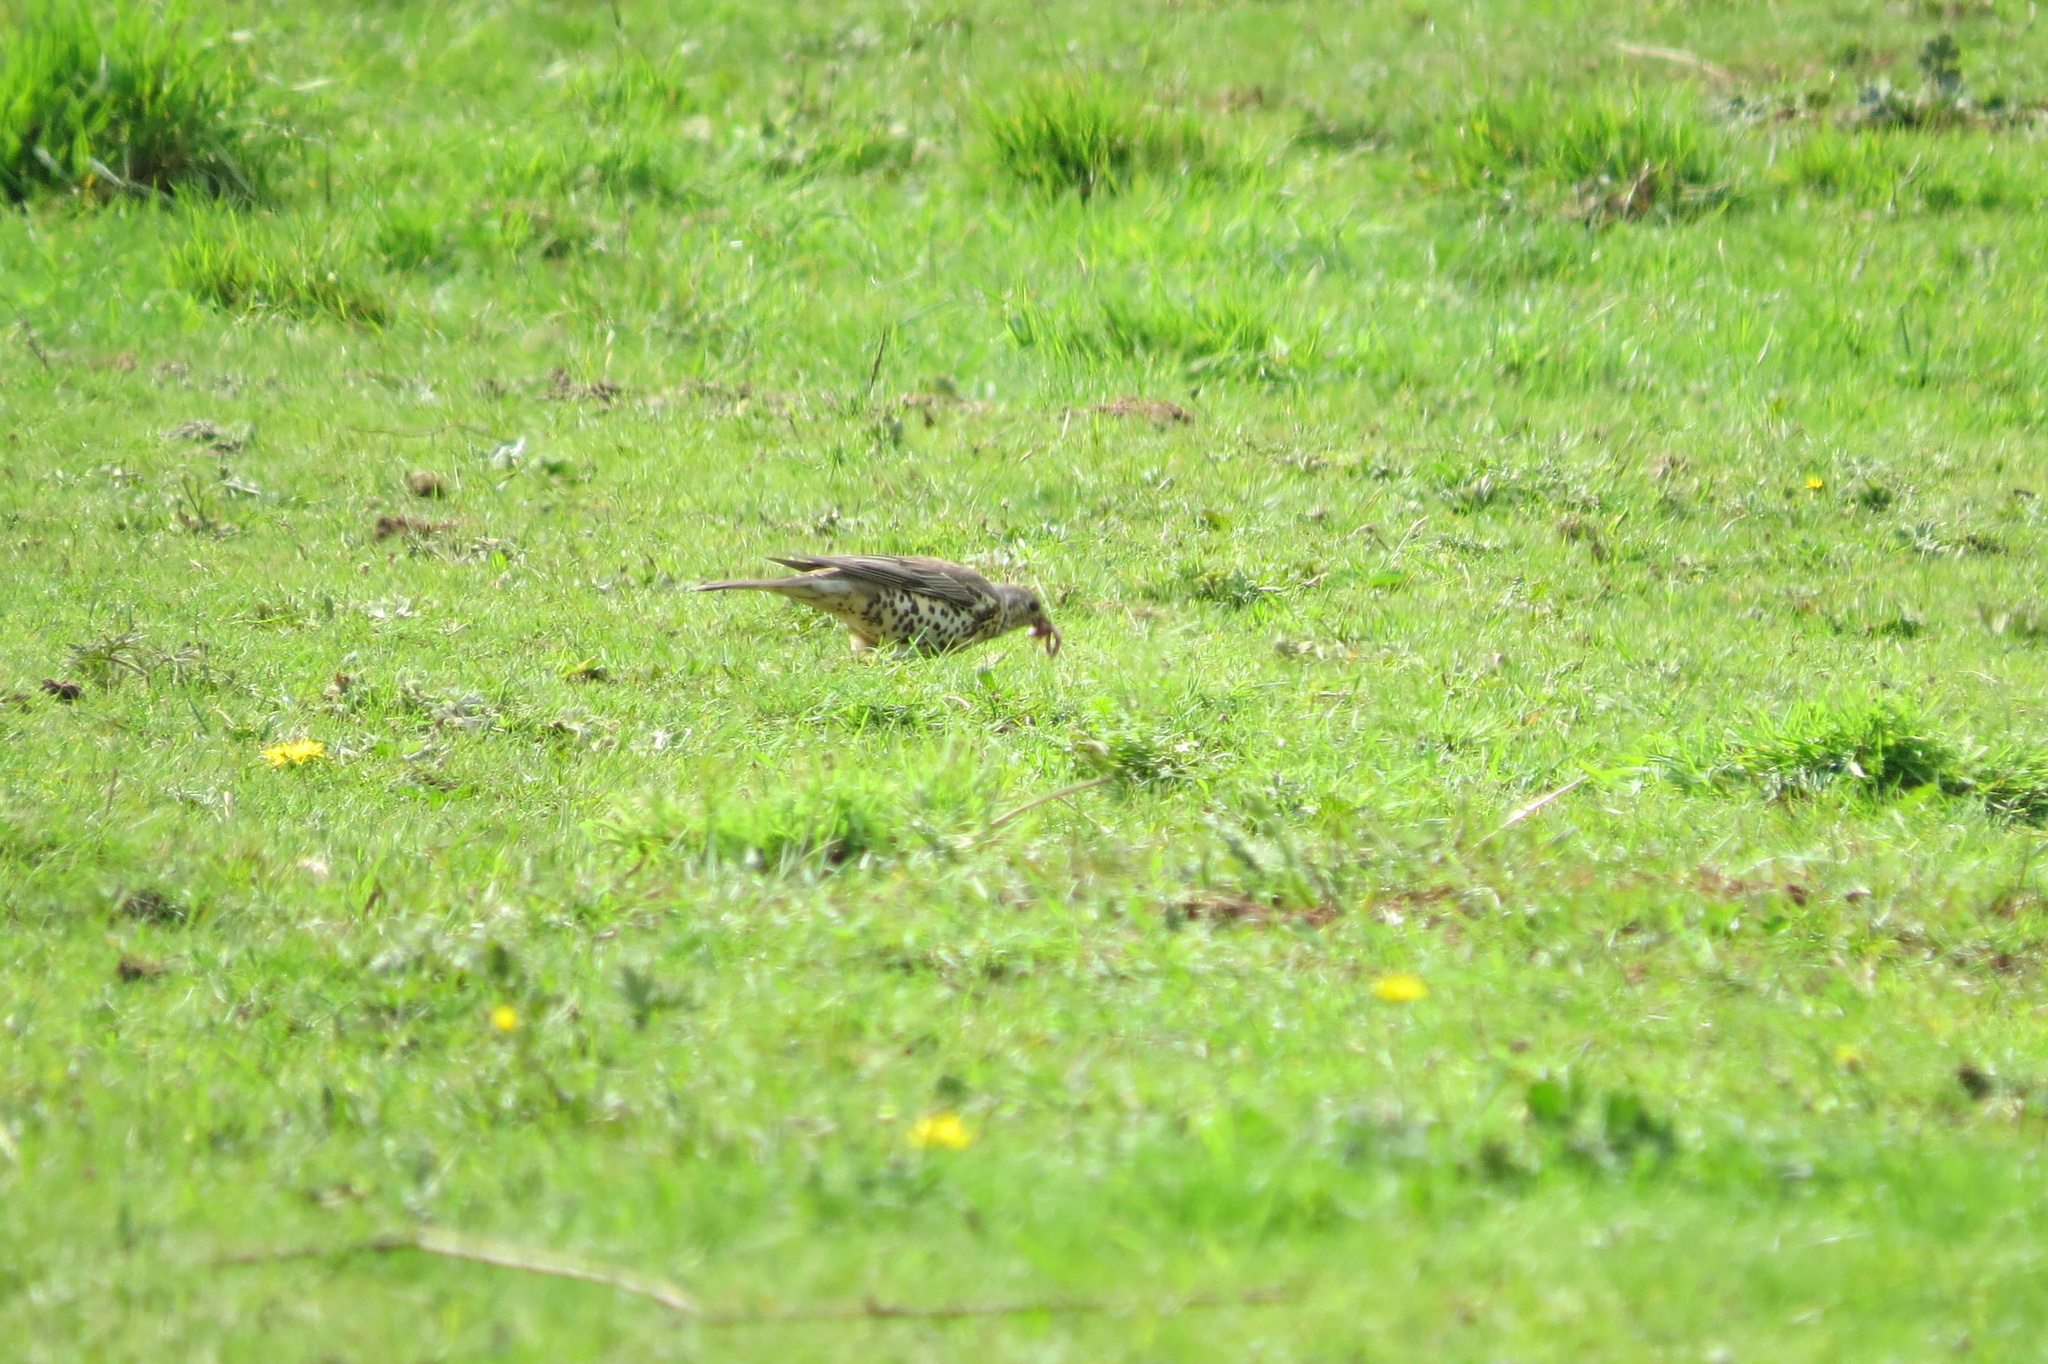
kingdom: Animalia
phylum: Chordata
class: Aves
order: Passeriformes
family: Turdidae
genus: Turdus
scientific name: Turdus viscivorus
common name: Mistle thrush
